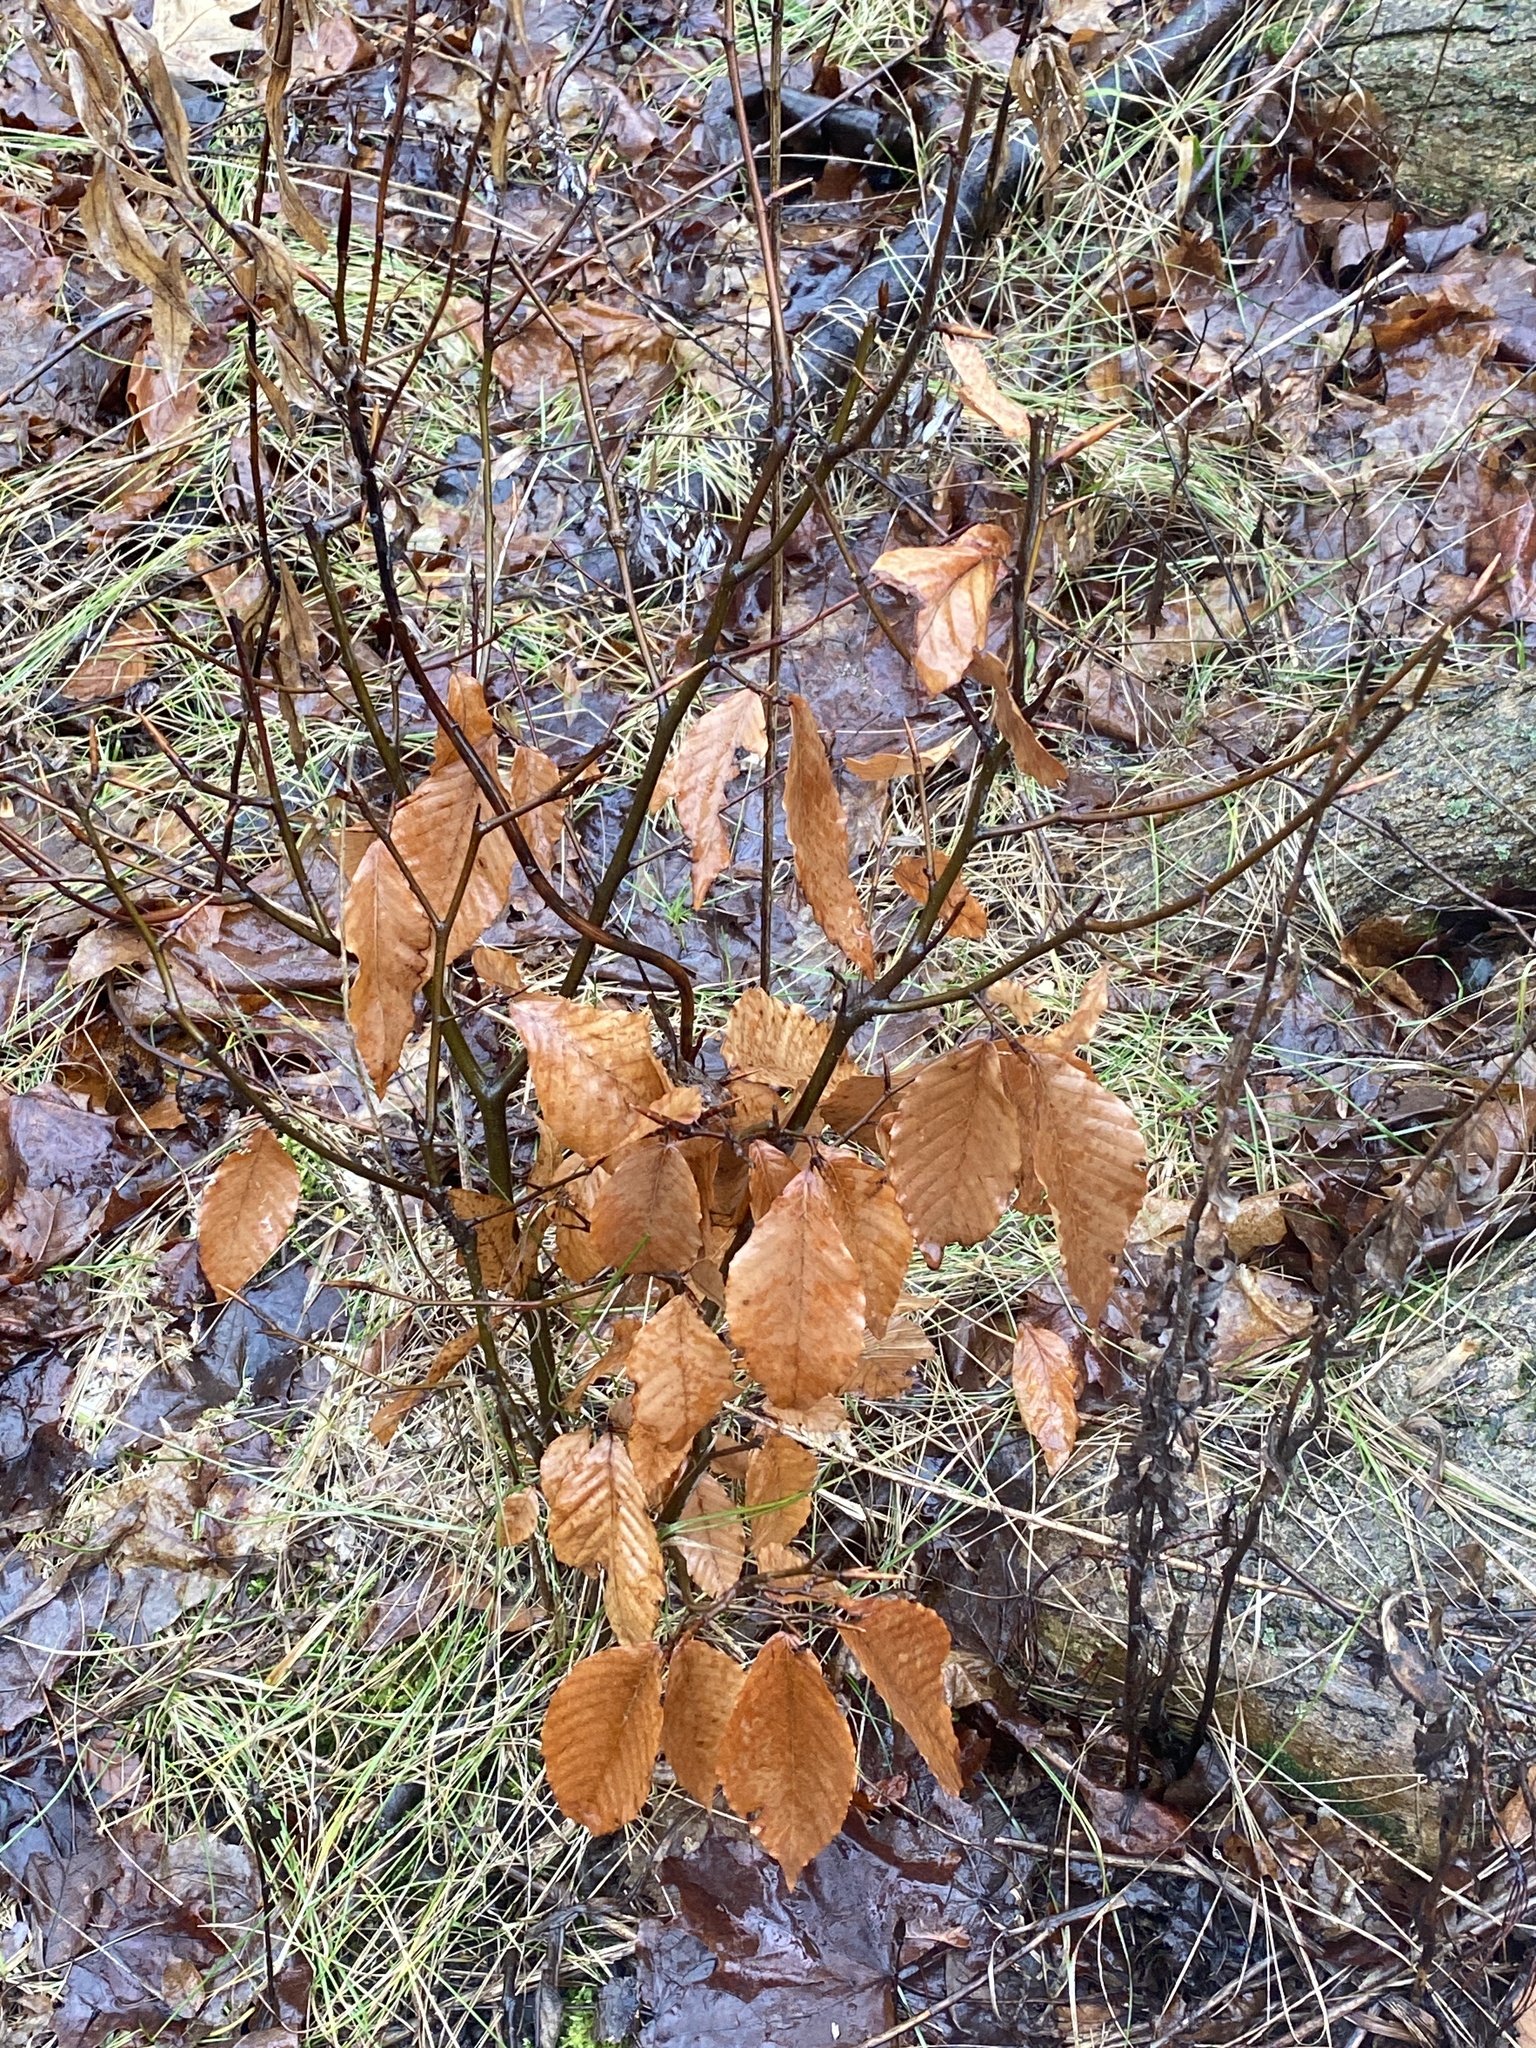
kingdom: Plantae
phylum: Tracheophyta
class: Magnoliopsida
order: Fagales
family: Fagaceae
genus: Fagus
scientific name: Fagus grandifolia
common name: American beech
